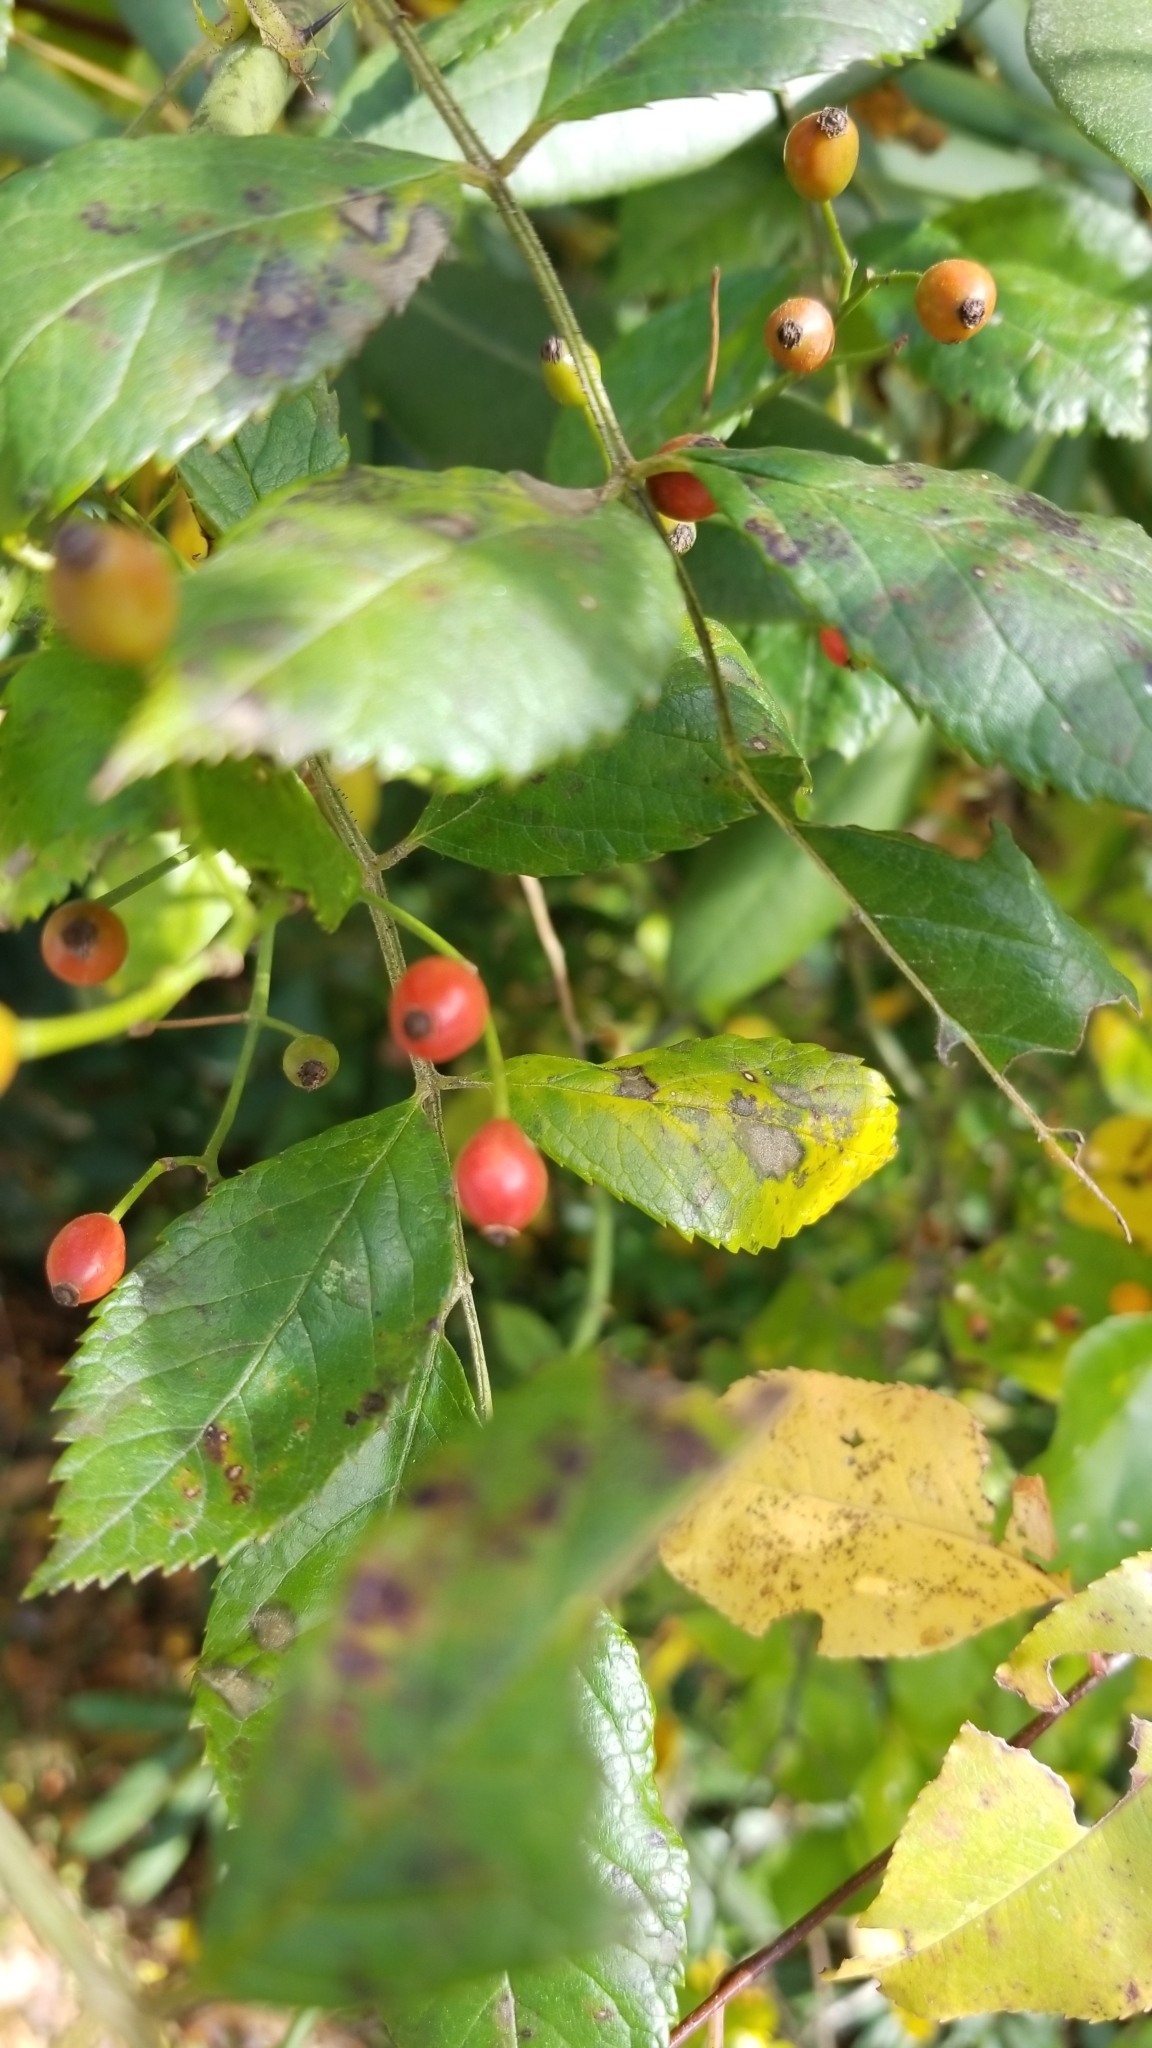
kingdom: Plantae
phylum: Tracheophyta
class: Magnoliopsida
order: Rosales
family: Rosaceae
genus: Rosa
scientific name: Rosa multiflora
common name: Multiflora rose
